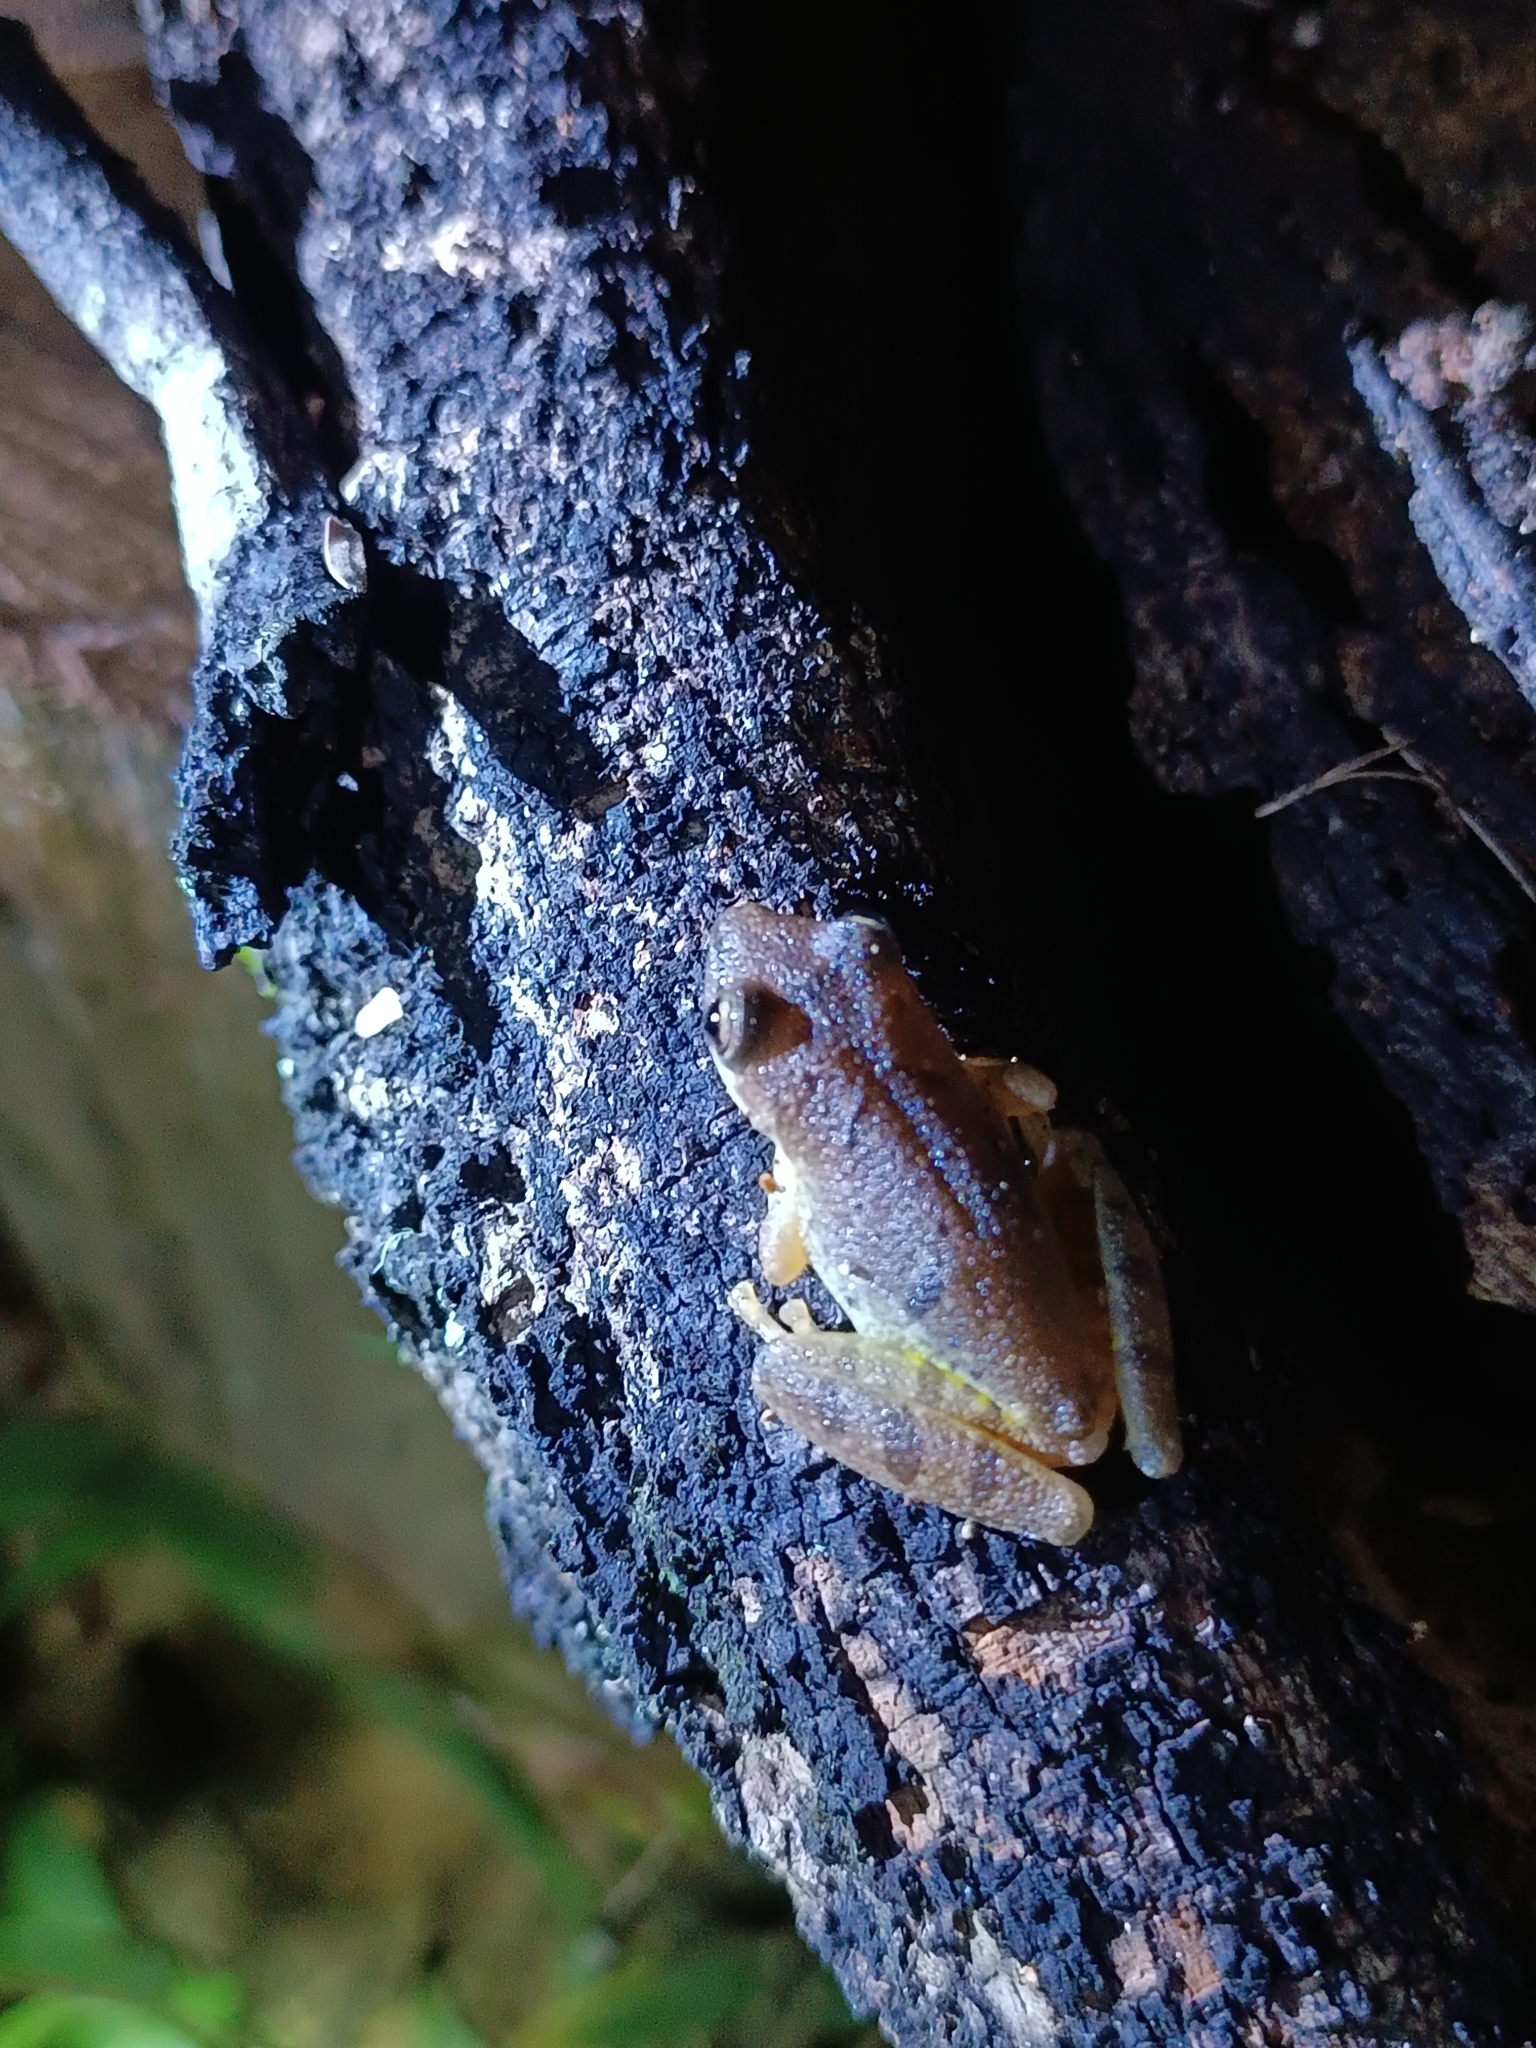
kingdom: Animalia
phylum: Chordata
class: Amphibia
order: Anura
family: Hylidae
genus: Scinax
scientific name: Scinax fuscovarius
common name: Fuscous-blotched treefrog
